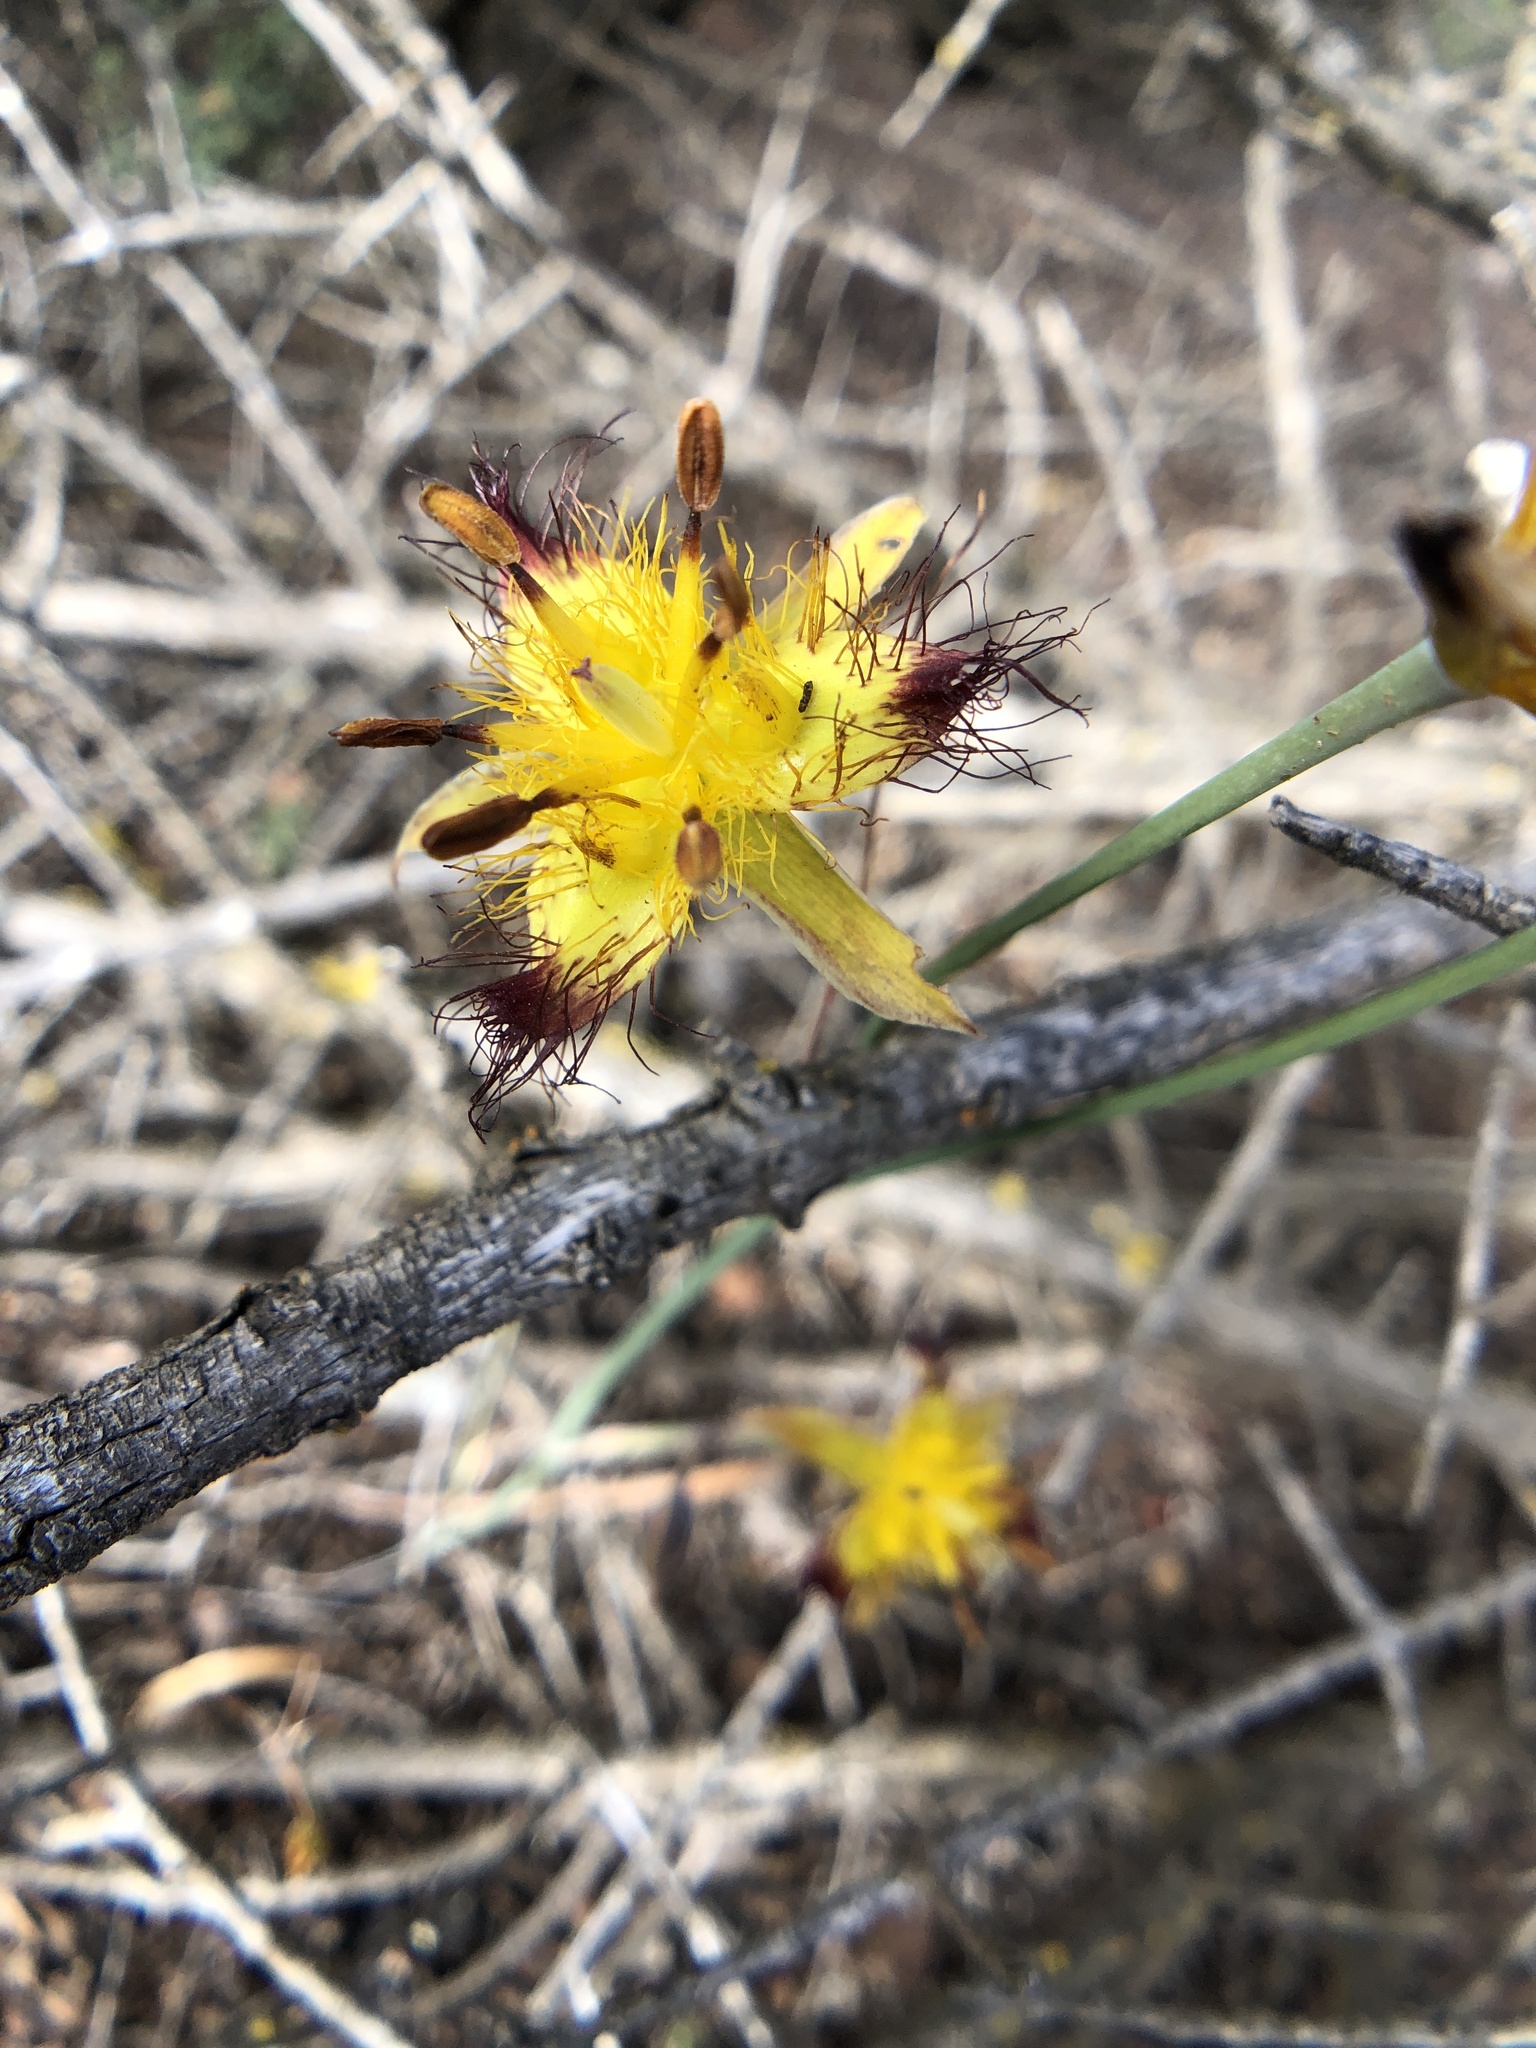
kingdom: Plantae
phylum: Tracheophyta
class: Liliopsida
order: Liliales
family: Liliaceae
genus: Calochortus
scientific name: Calochortus obispoensis
